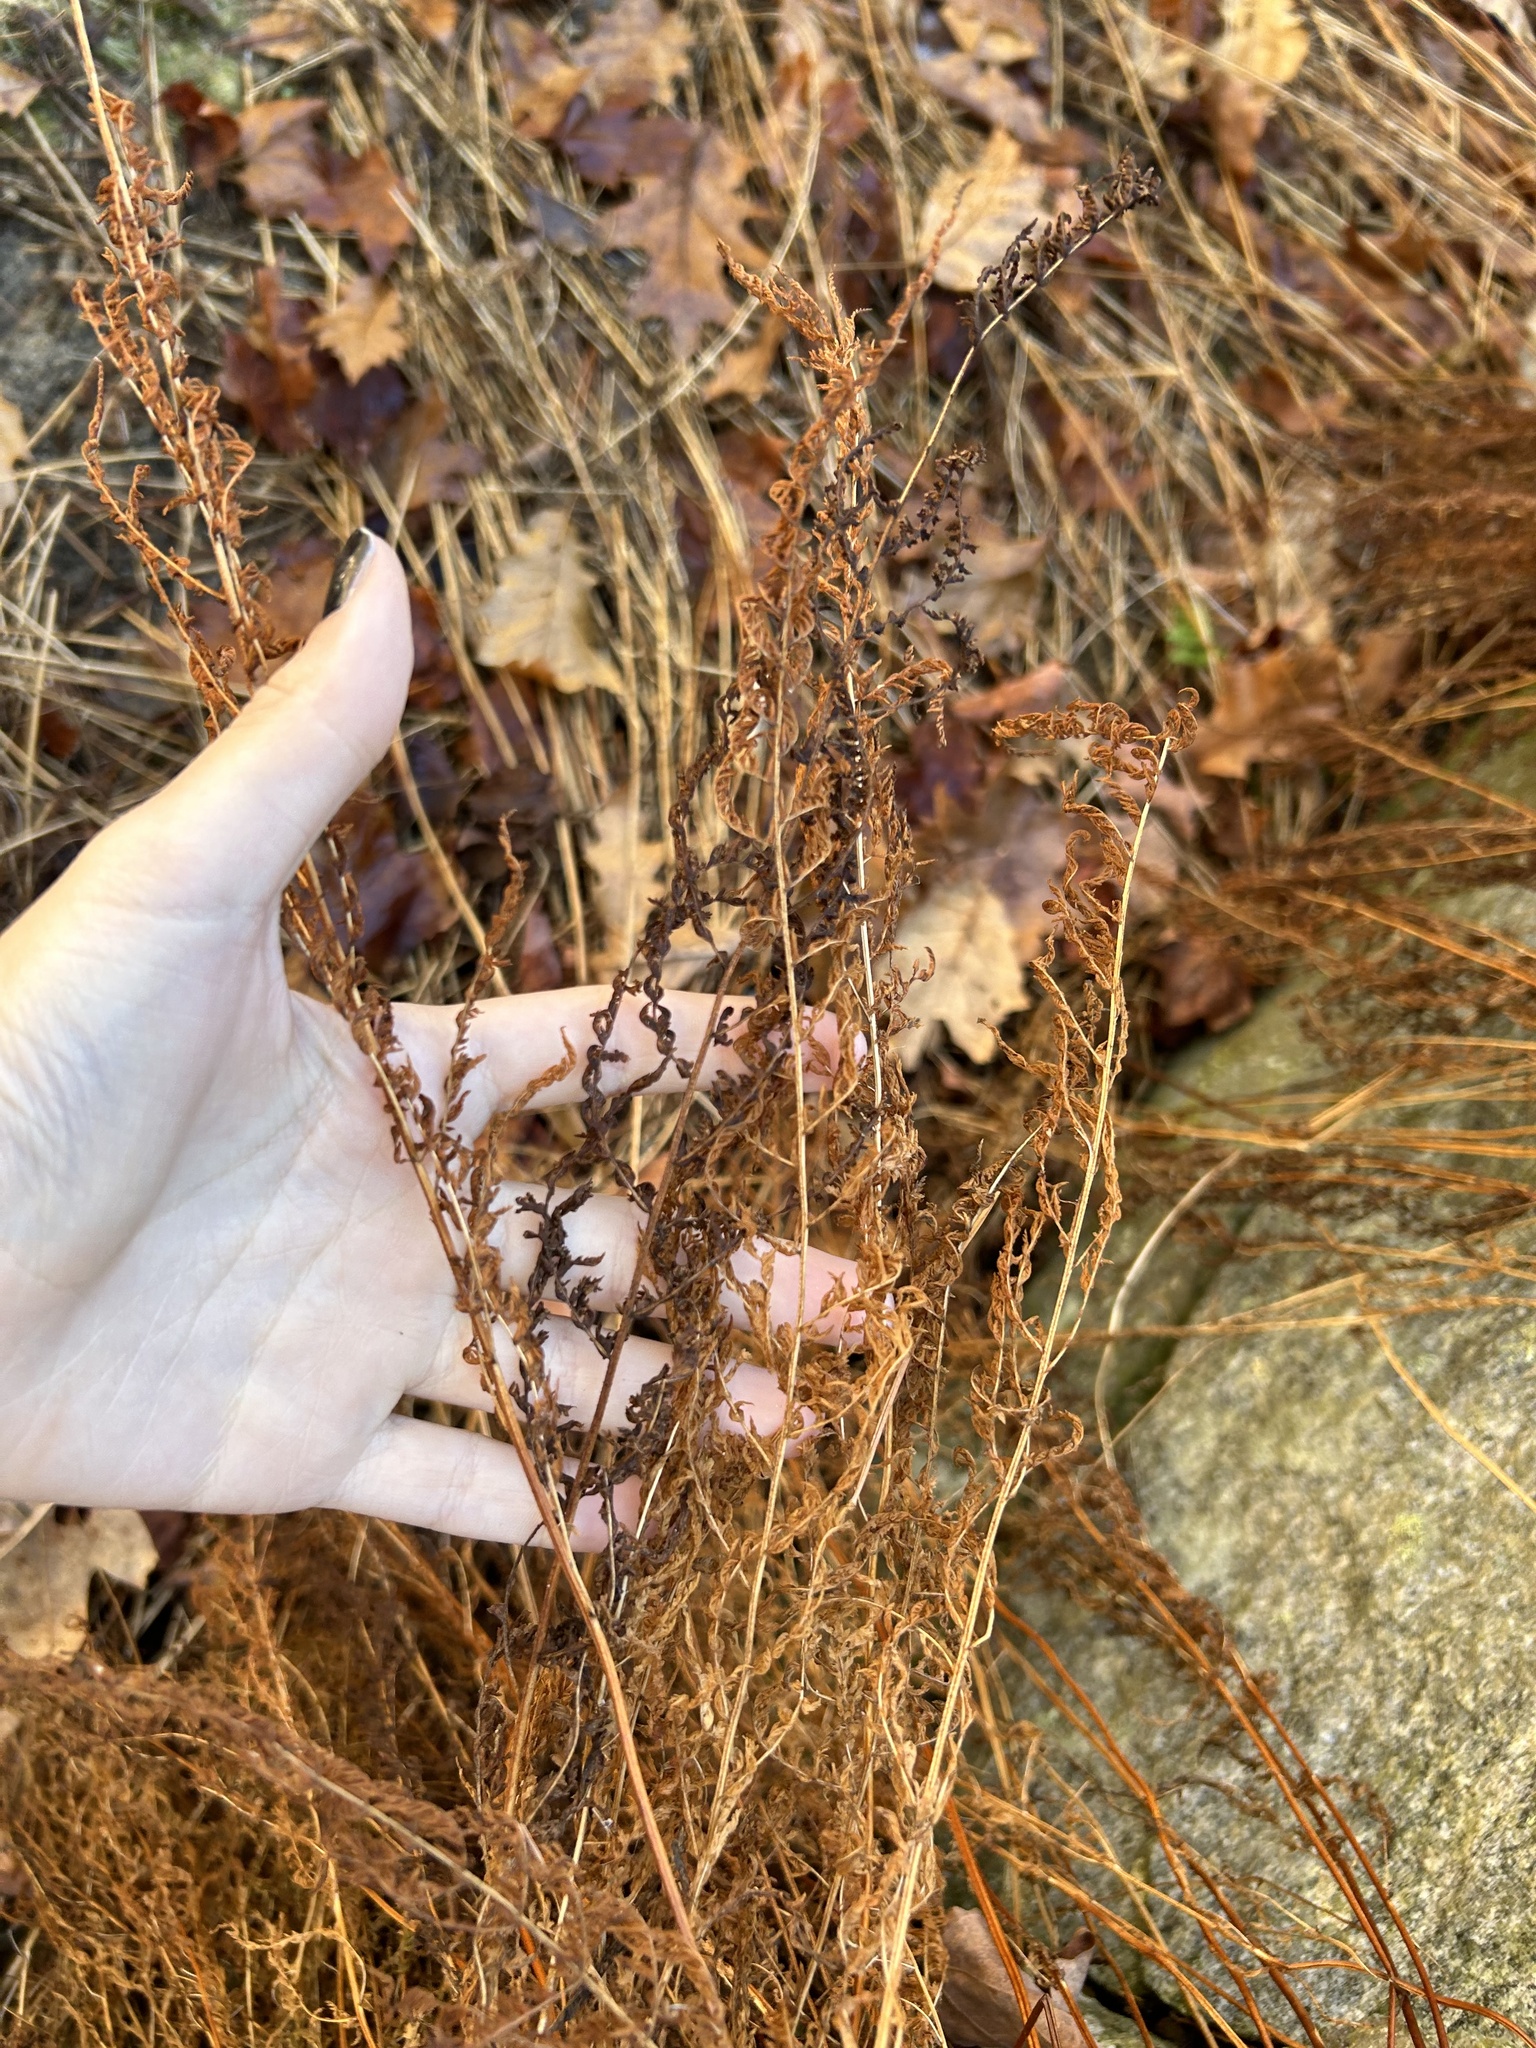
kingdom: Plantae
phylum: Tracheophyta
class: Polypodiopsida
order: Polypodiales
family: Dennstaedtiaceae
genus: Sitobolium
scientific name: Sitobolium punctilobum
